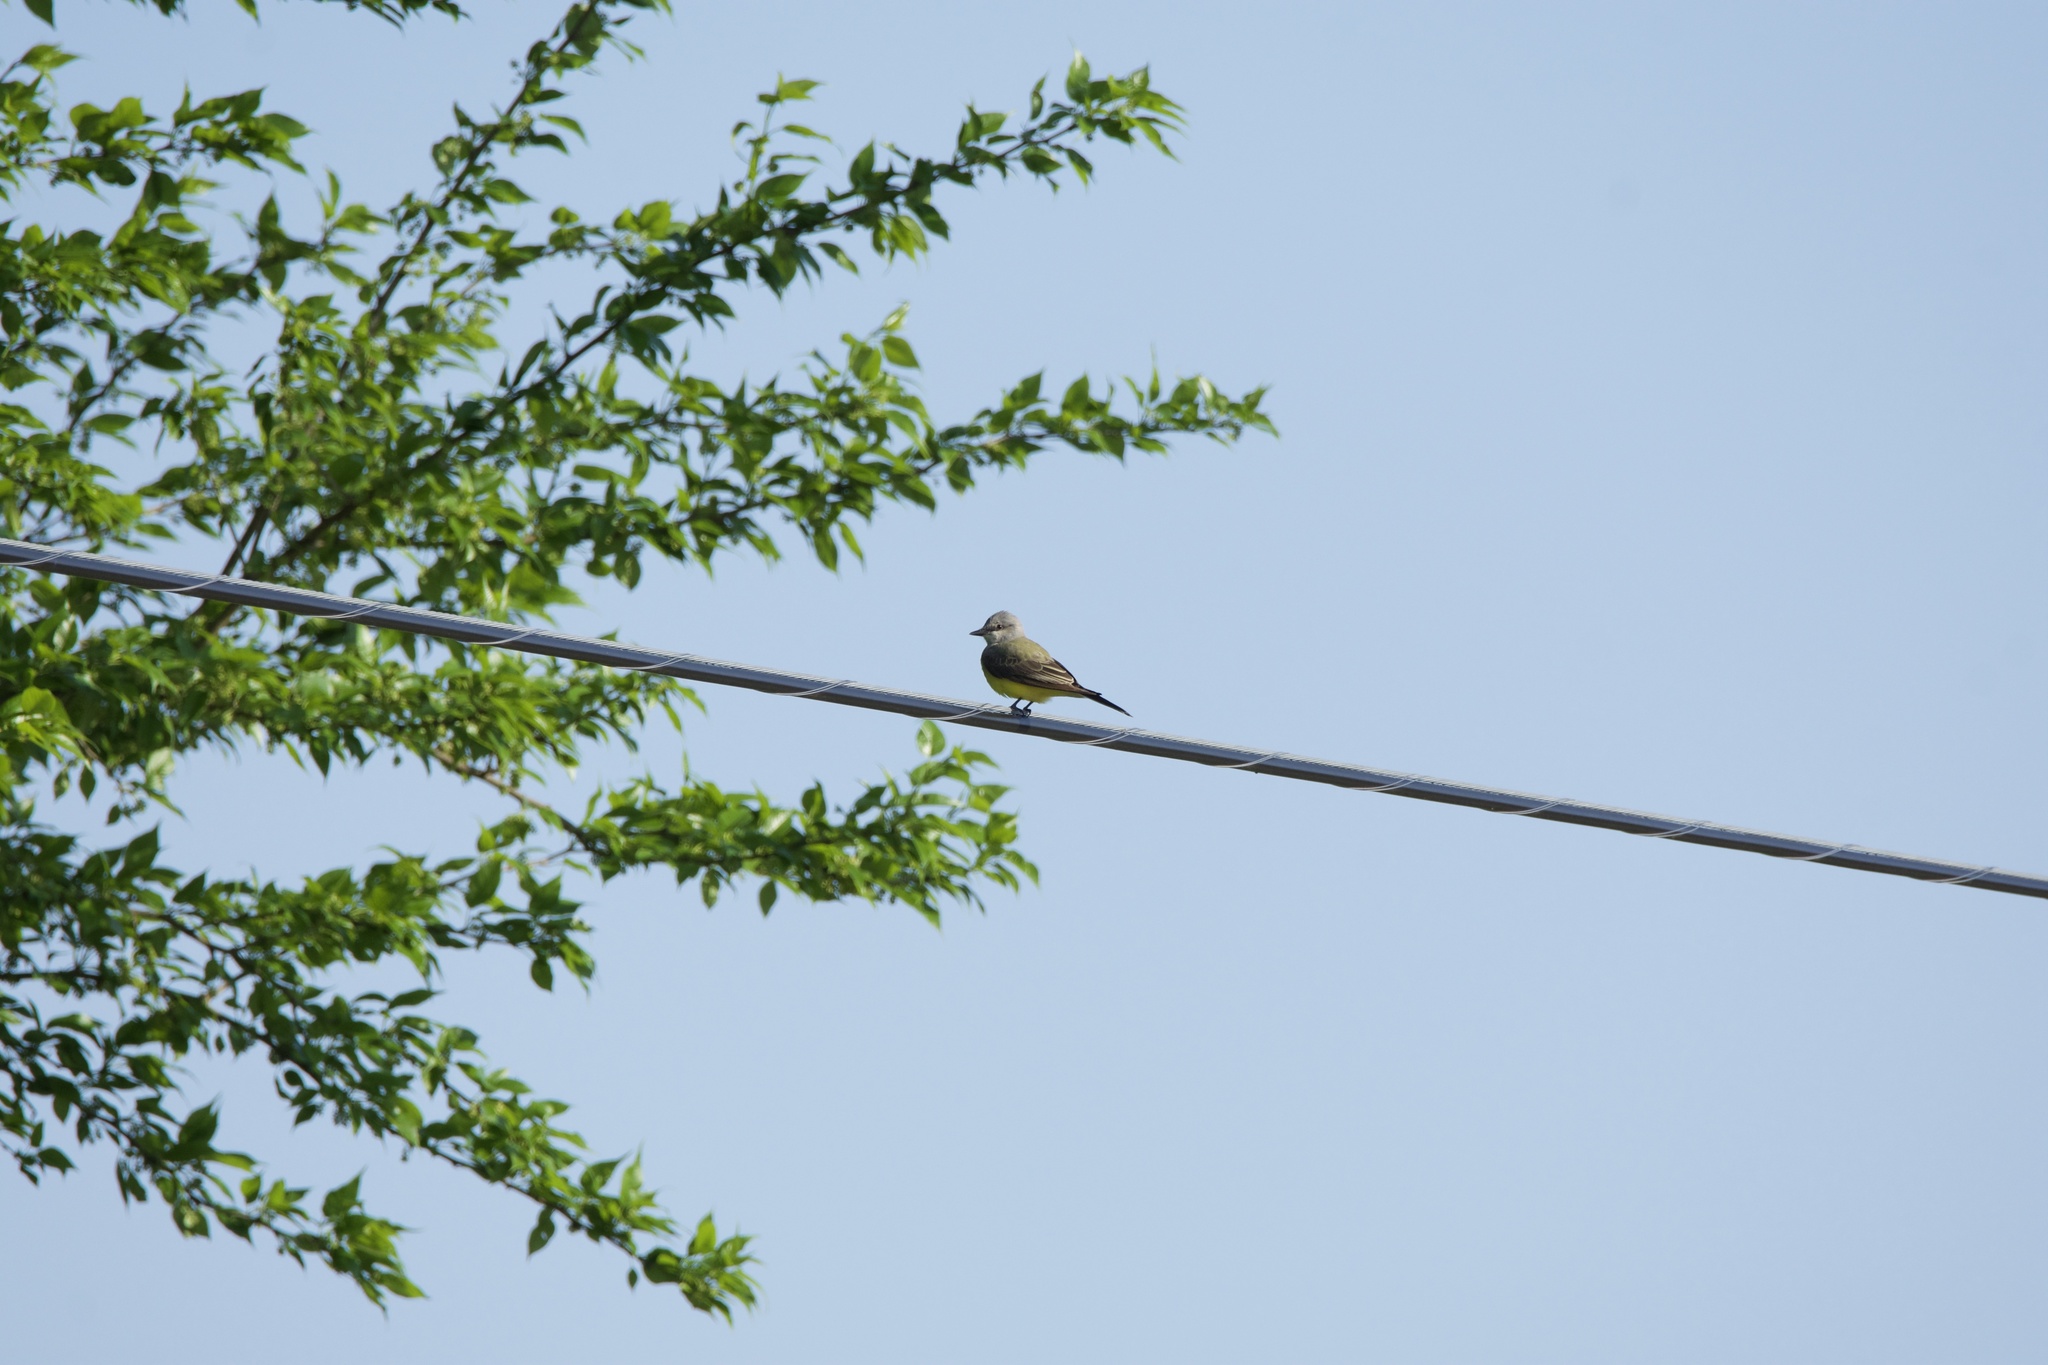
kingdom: Animalia
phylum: Chordata
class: Aves
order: Passeriformes
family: Tyrannidae
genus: Tyrannus
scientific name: Tyrannus verticalis
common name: Western kingbird
